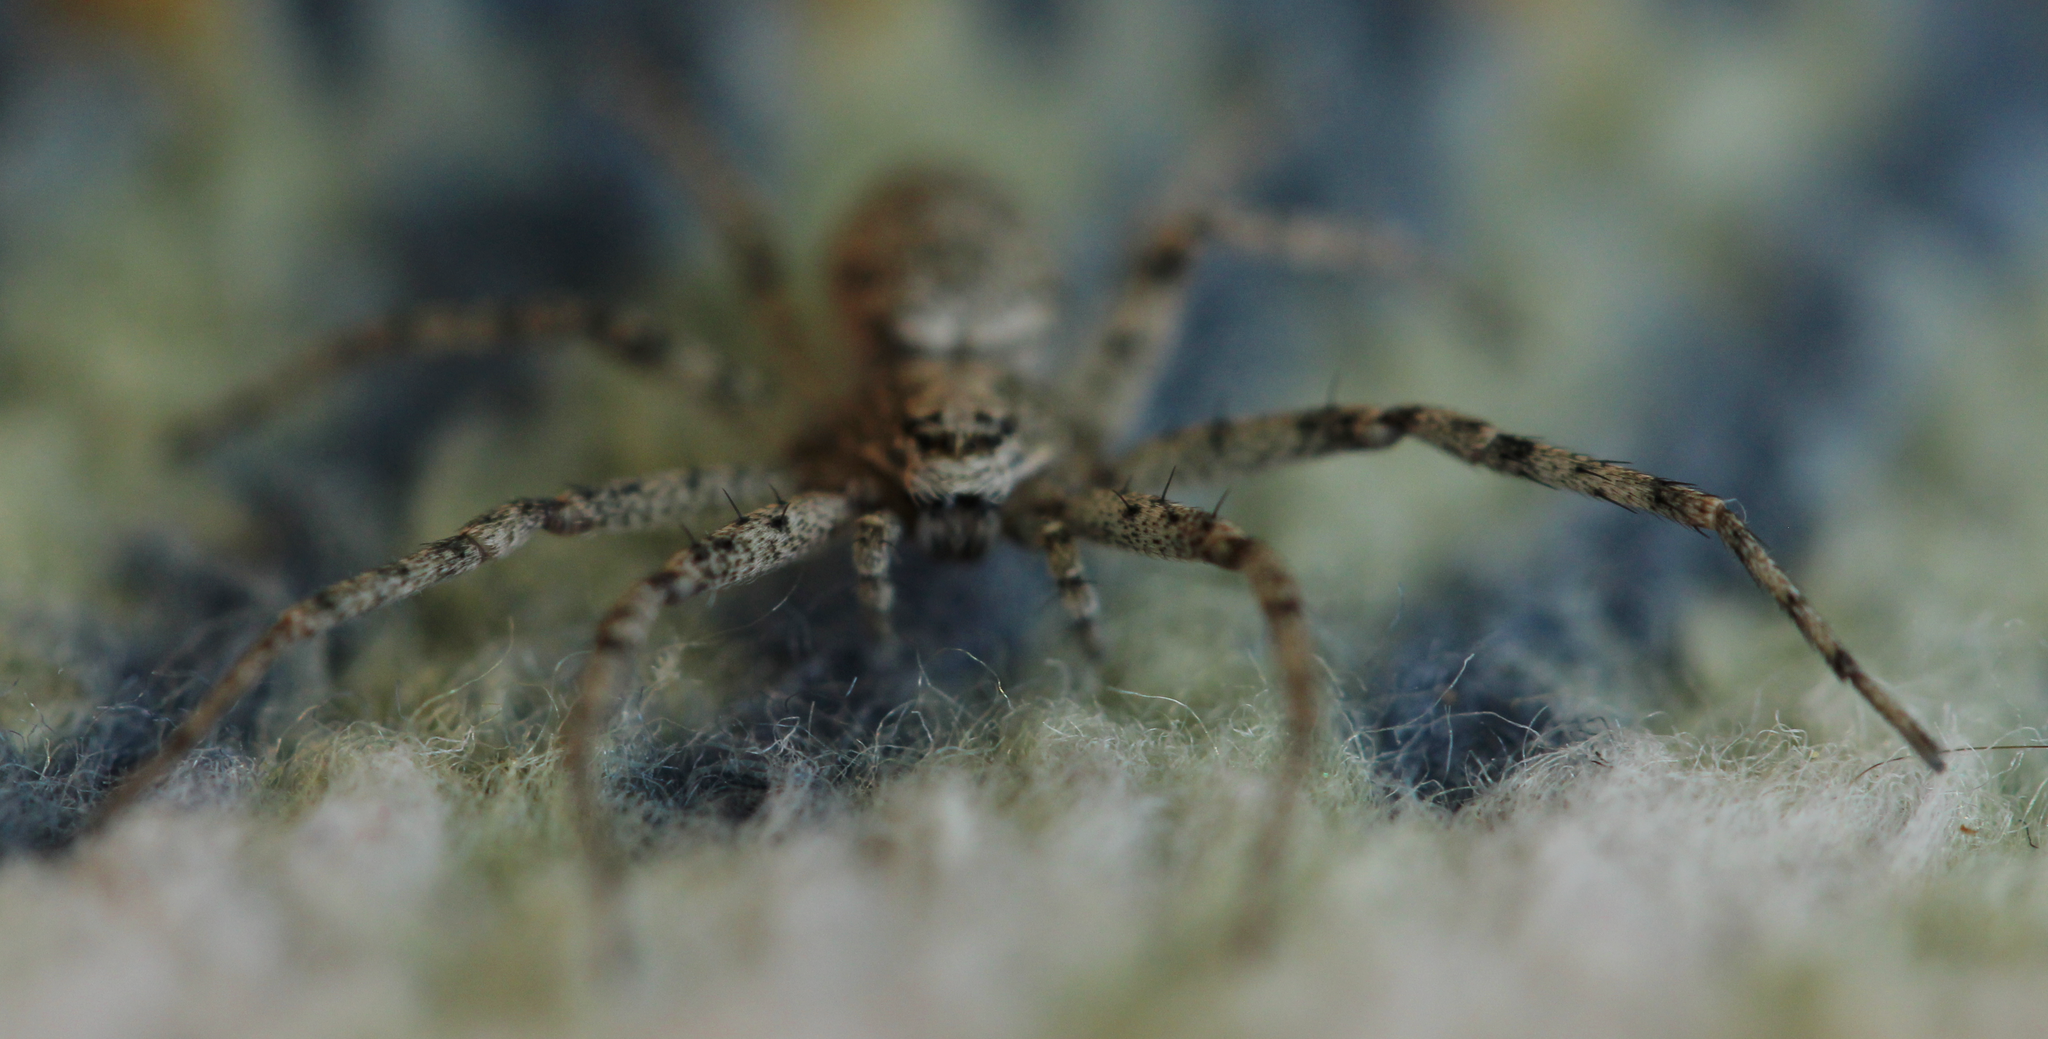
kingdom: Animalia
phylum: Arthropoda
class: Arachnida
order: Araneae
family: Philodromidae
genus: Philodromus
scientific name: Philodromus buxi
